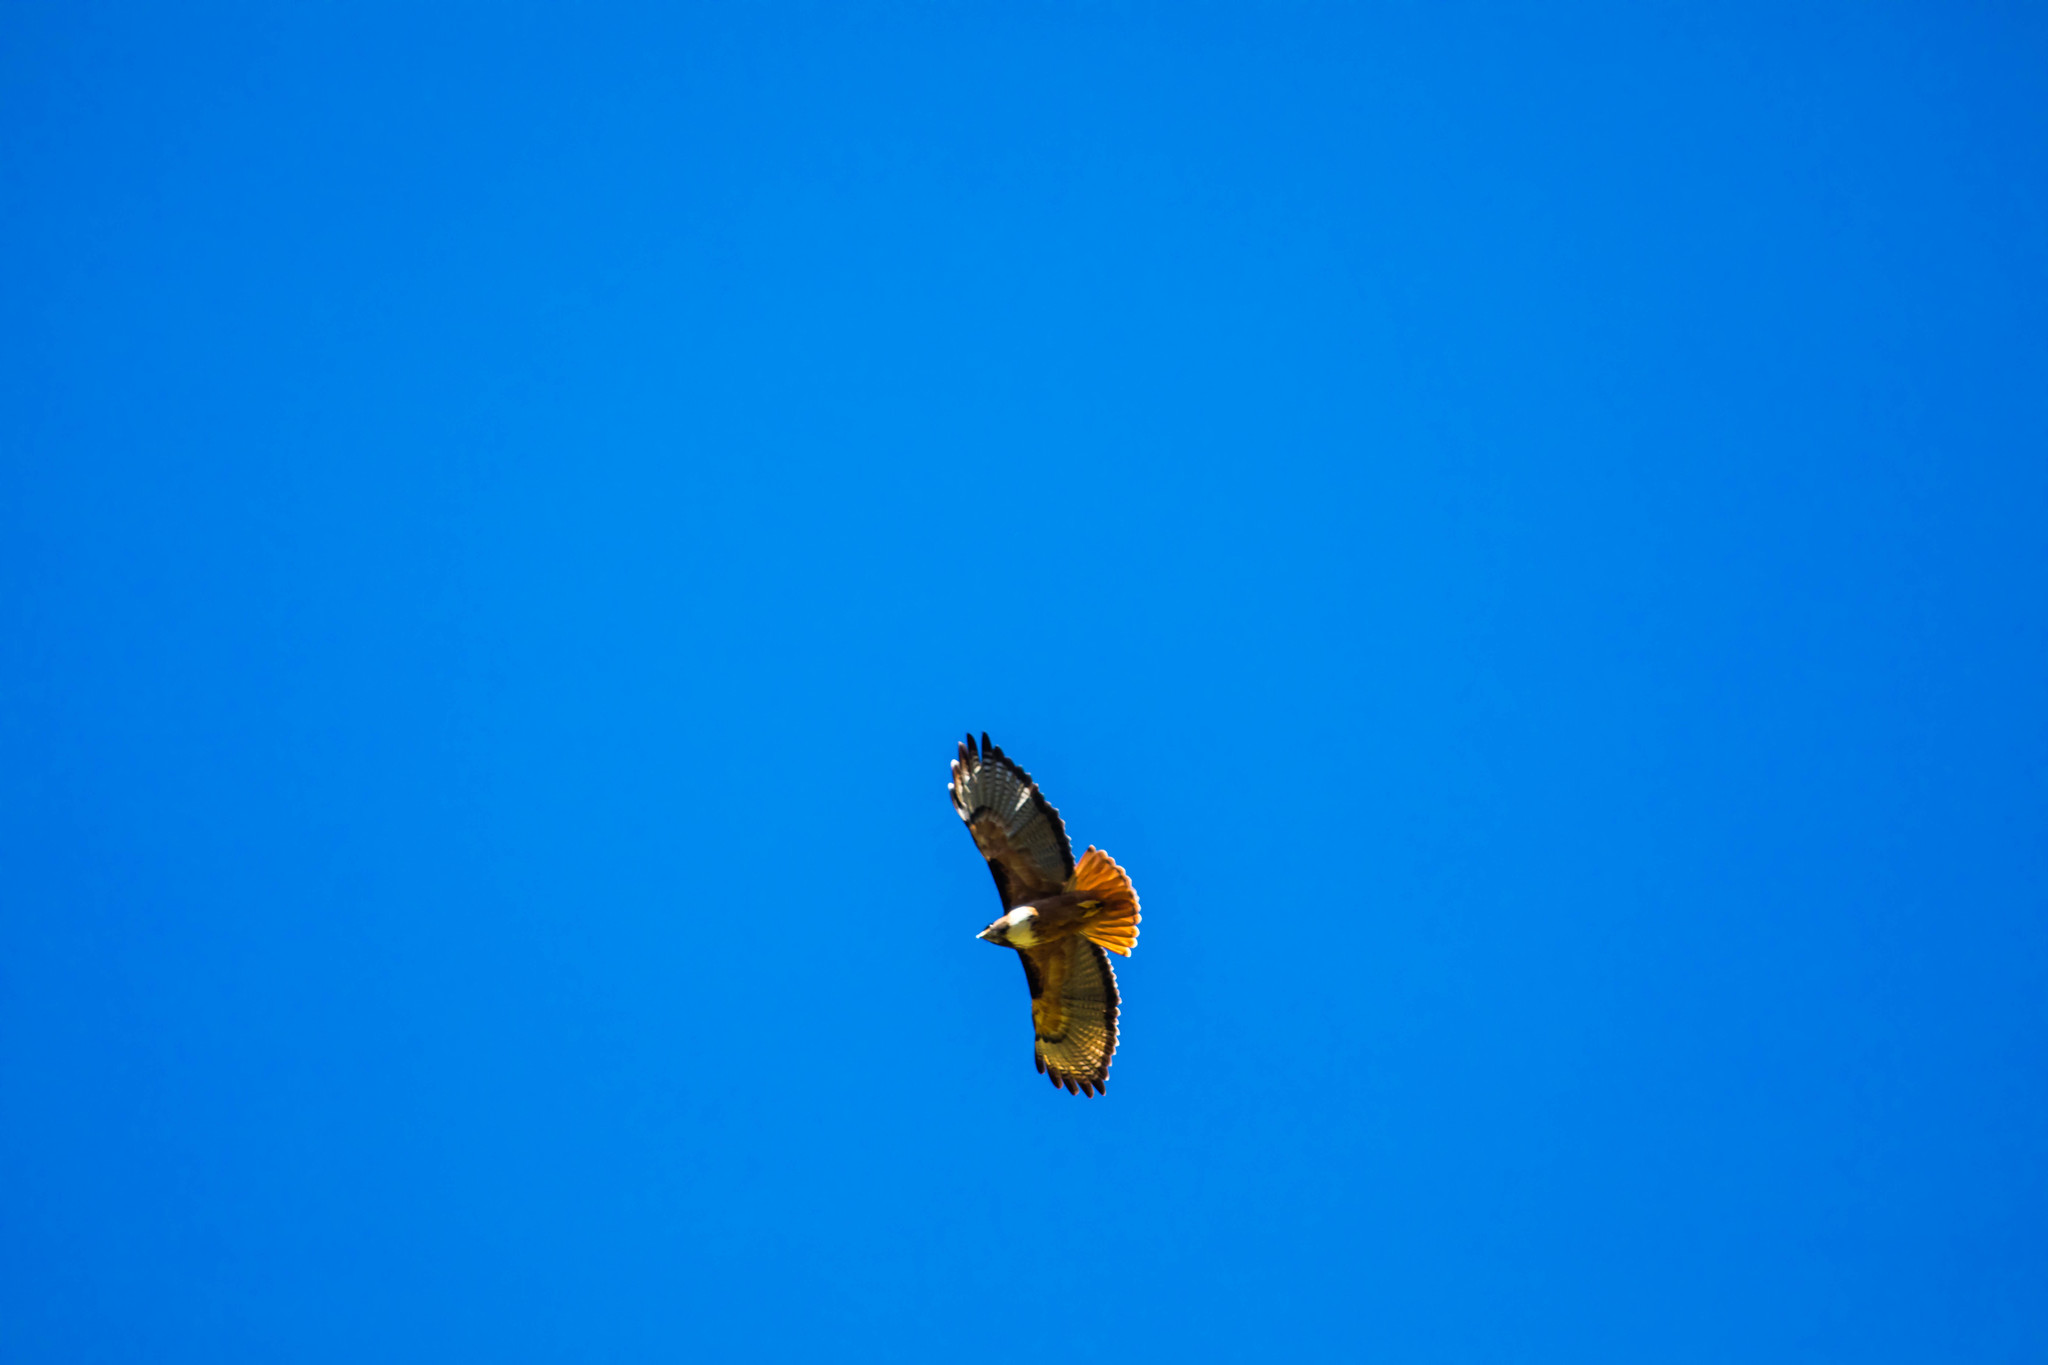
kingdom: Animalia
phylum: Chordata
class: Aves
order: Accipitriformes
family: Accipitridae
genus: Buteo
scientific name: Buteo jamaicensis
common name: Red-tailed hawk
